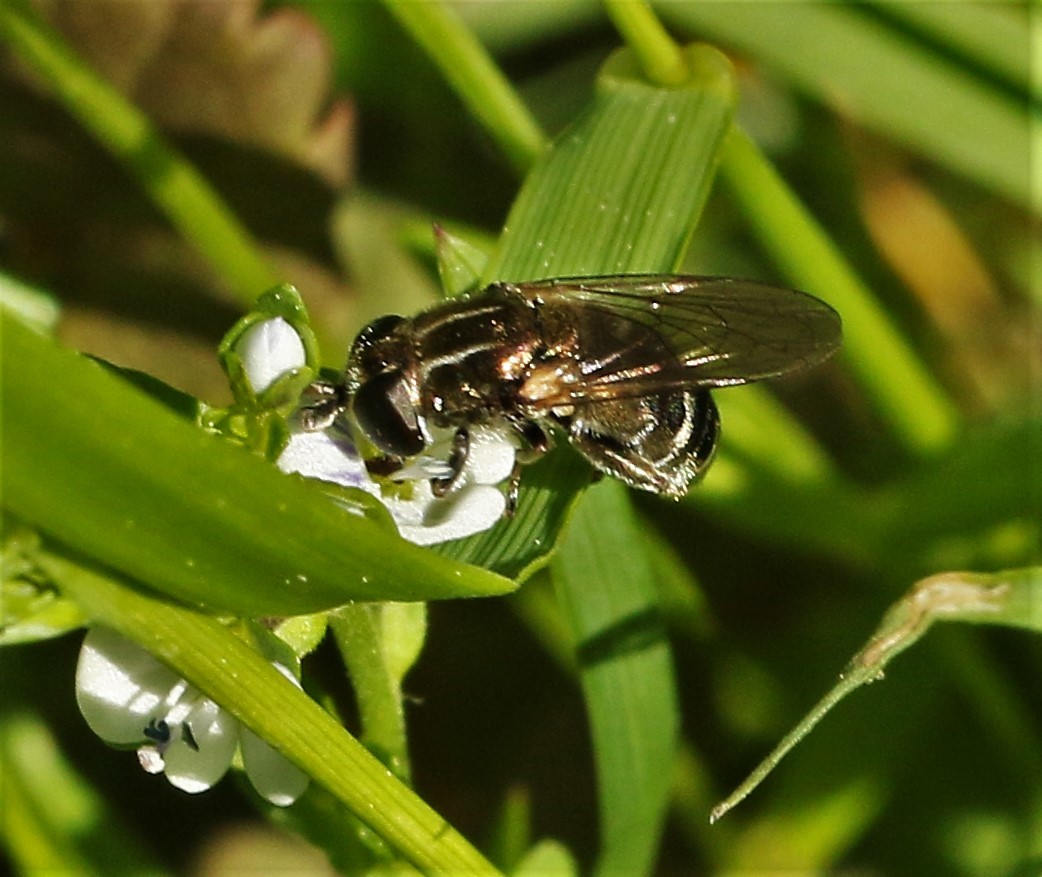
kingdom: Animalia
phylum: Arthropoda
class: Insecta
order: Diptera
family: Syrphidae
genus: Eumerus
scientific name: Eumerus
